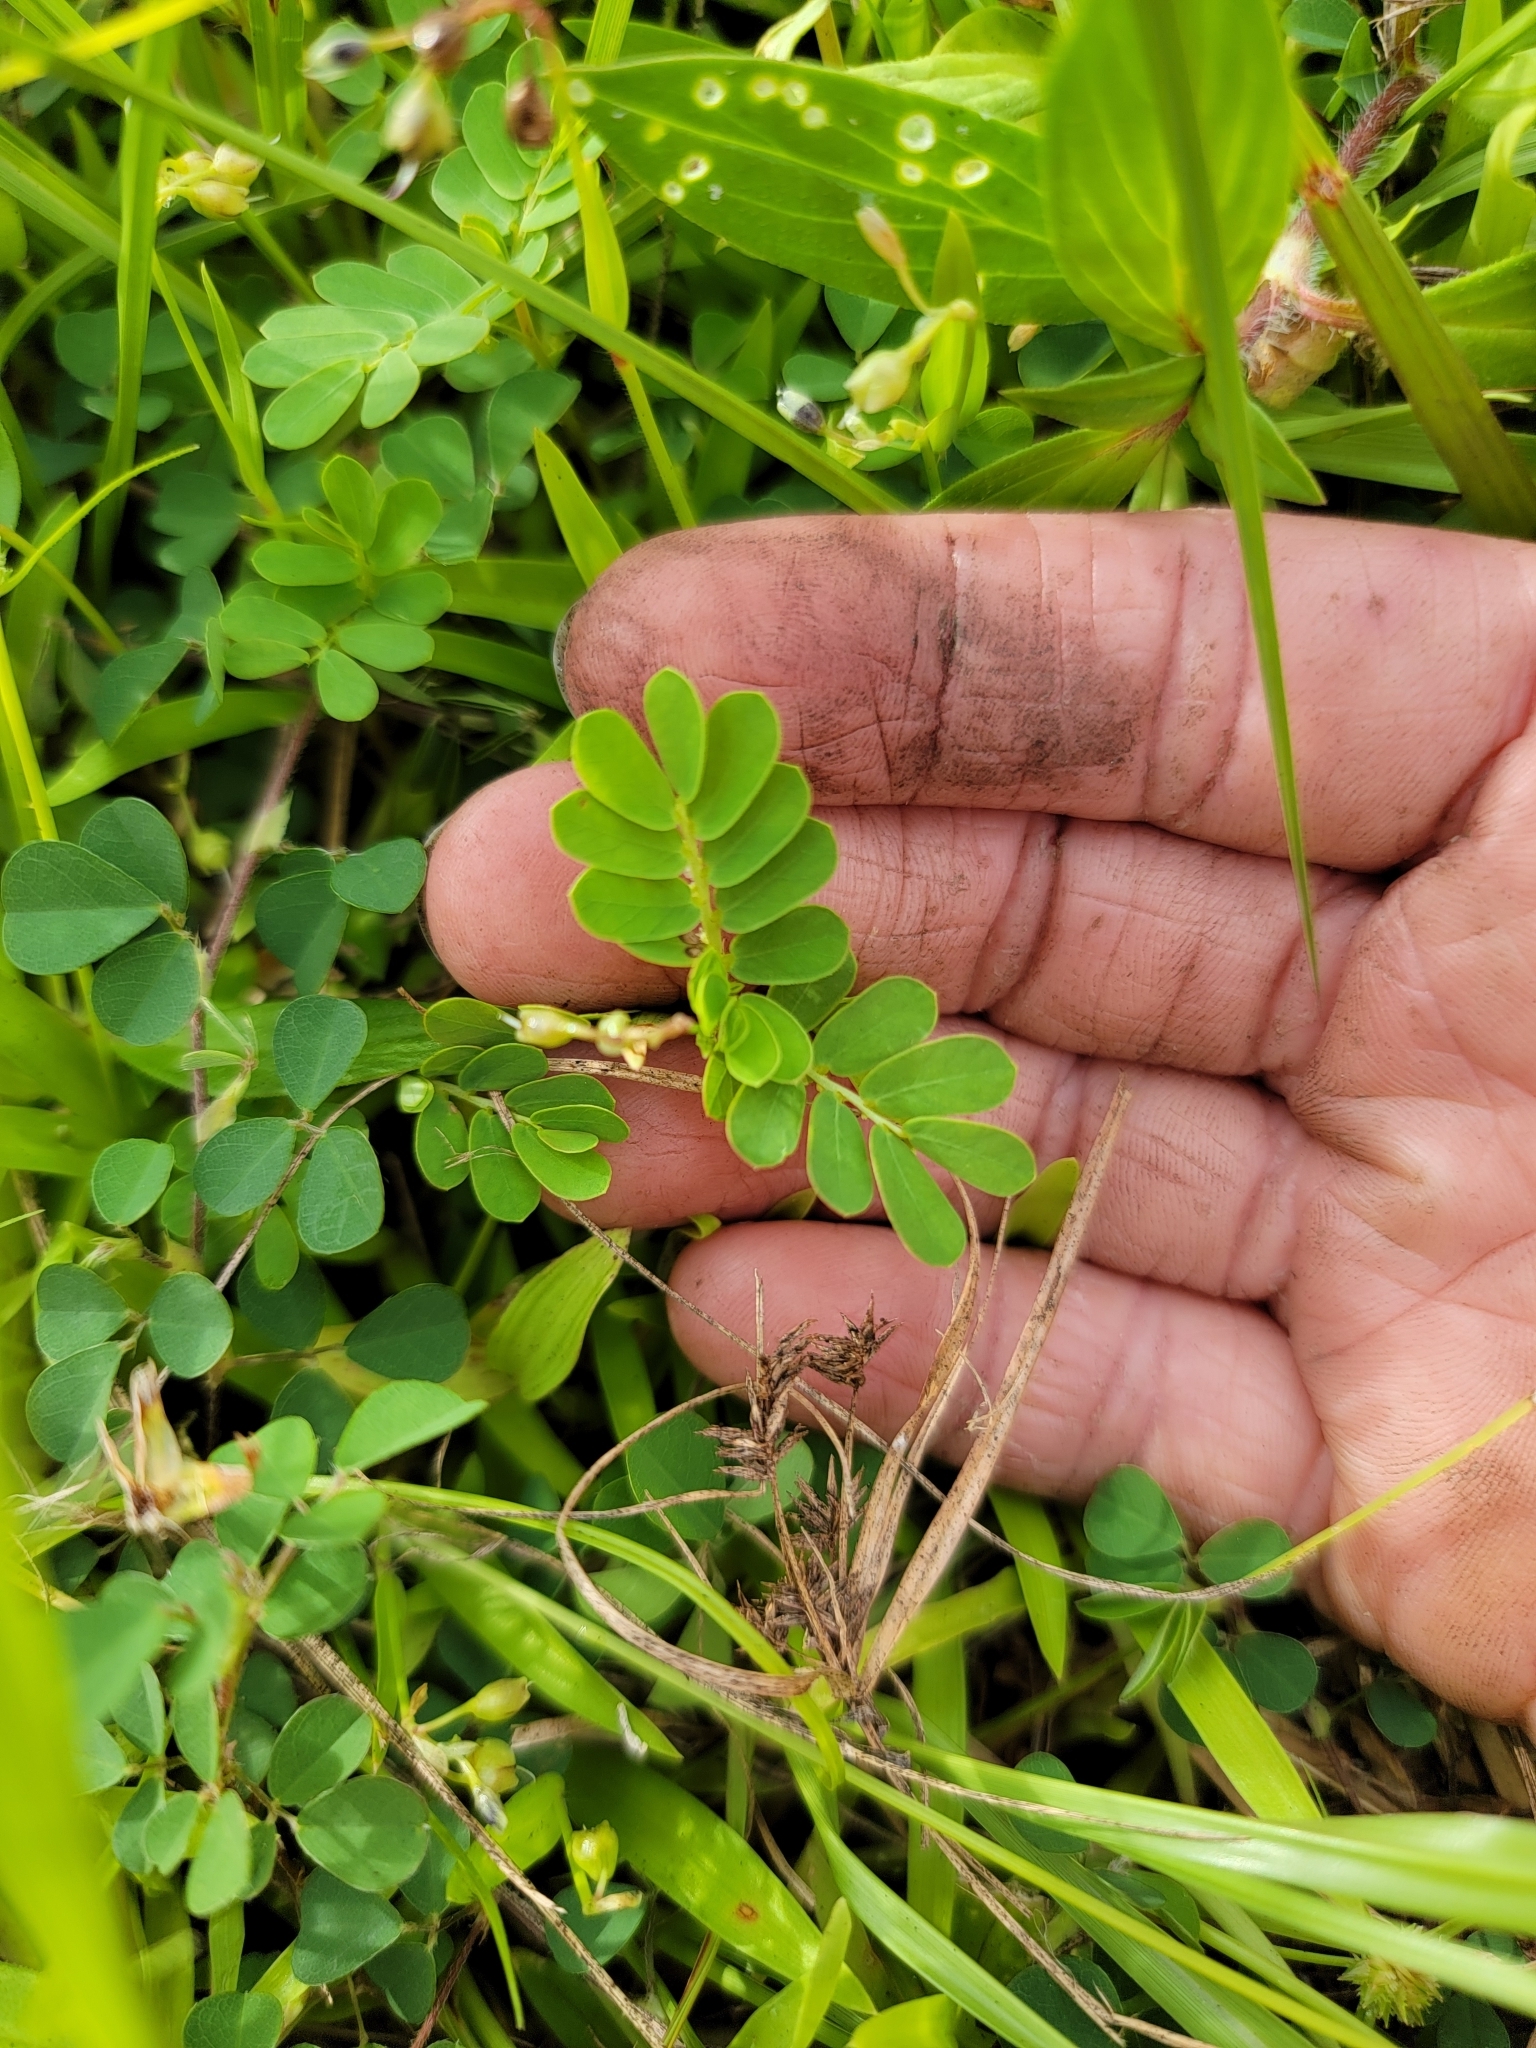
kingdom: Plantae
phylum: Tracheophyta
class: Magnoliopsida
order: Malpighiales
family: Phyllanthaceae
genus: Phyllanthus
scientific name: Phyllanthus urinaria
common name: Chamber bitter
